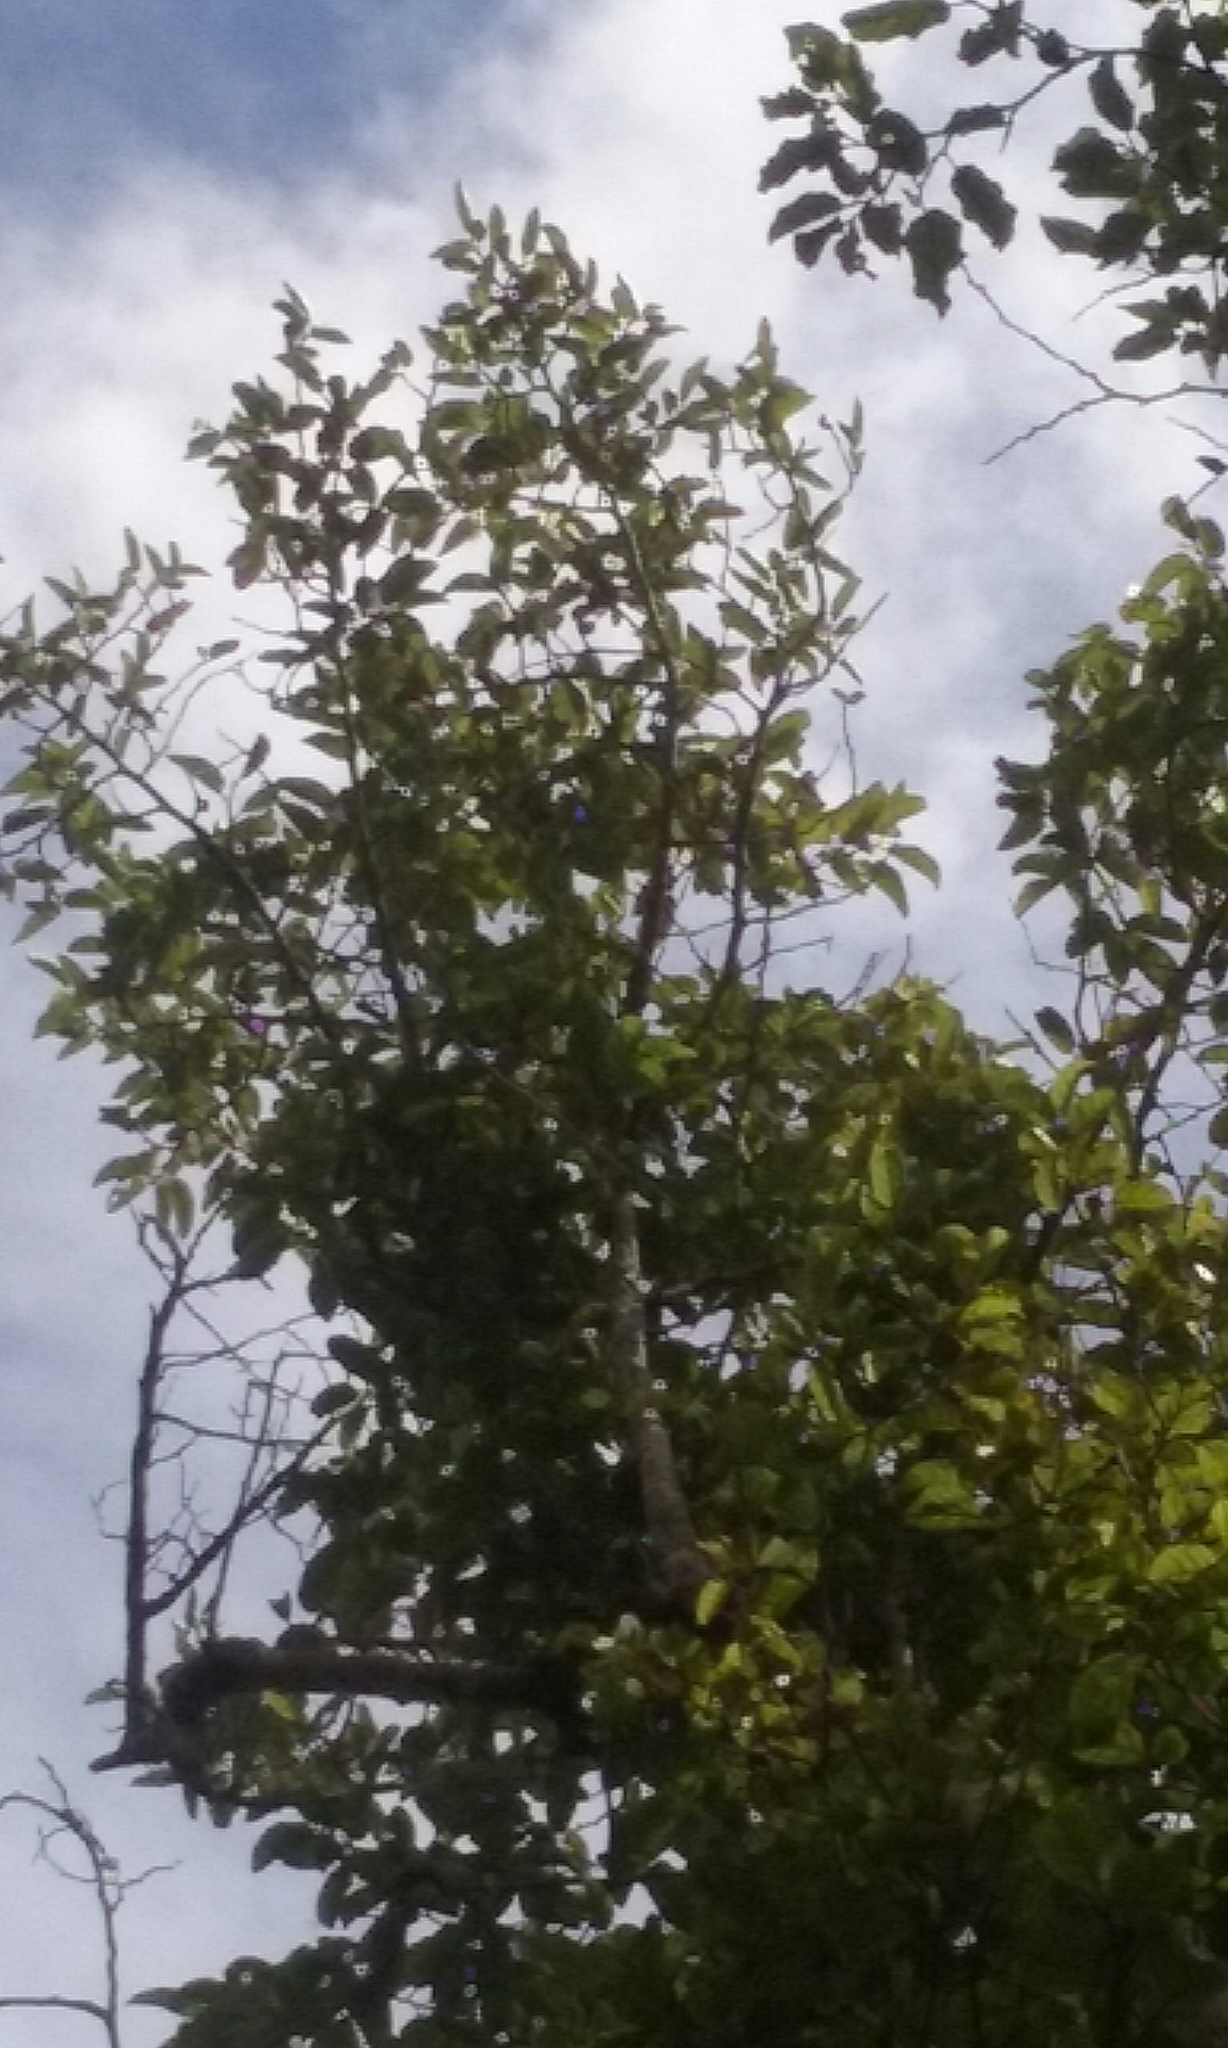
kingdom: Plantae
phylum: Tracheophyta
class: Magnoliopsida
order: Asterales
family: Rousseaceae
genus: Carpodetus
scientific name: Carpodetus serratus
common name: White mapau
